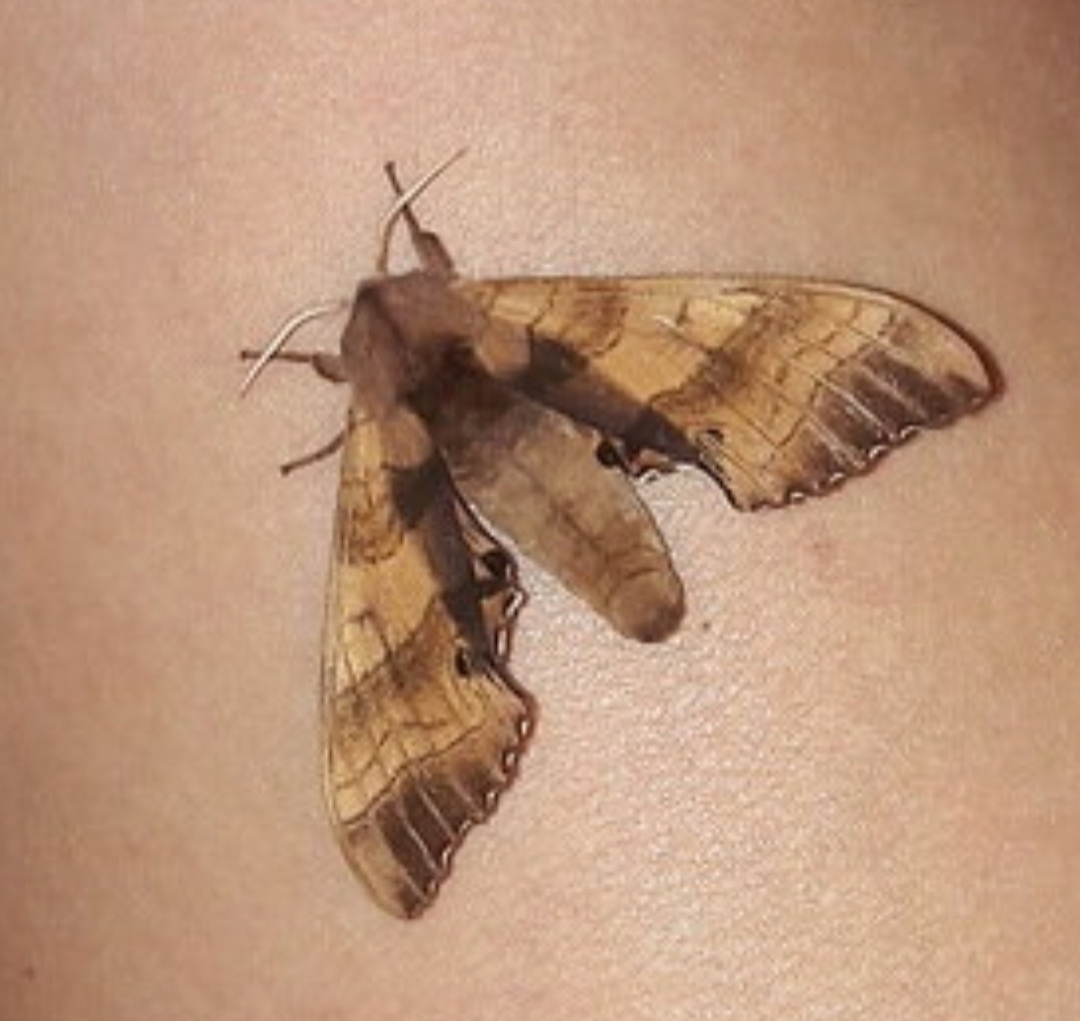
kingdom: Animalia
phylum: Arthropoda
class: Insecta
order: Lepidoptera
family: Sphingidae
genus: Marumba
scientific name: Marumba gaschkewitschii
